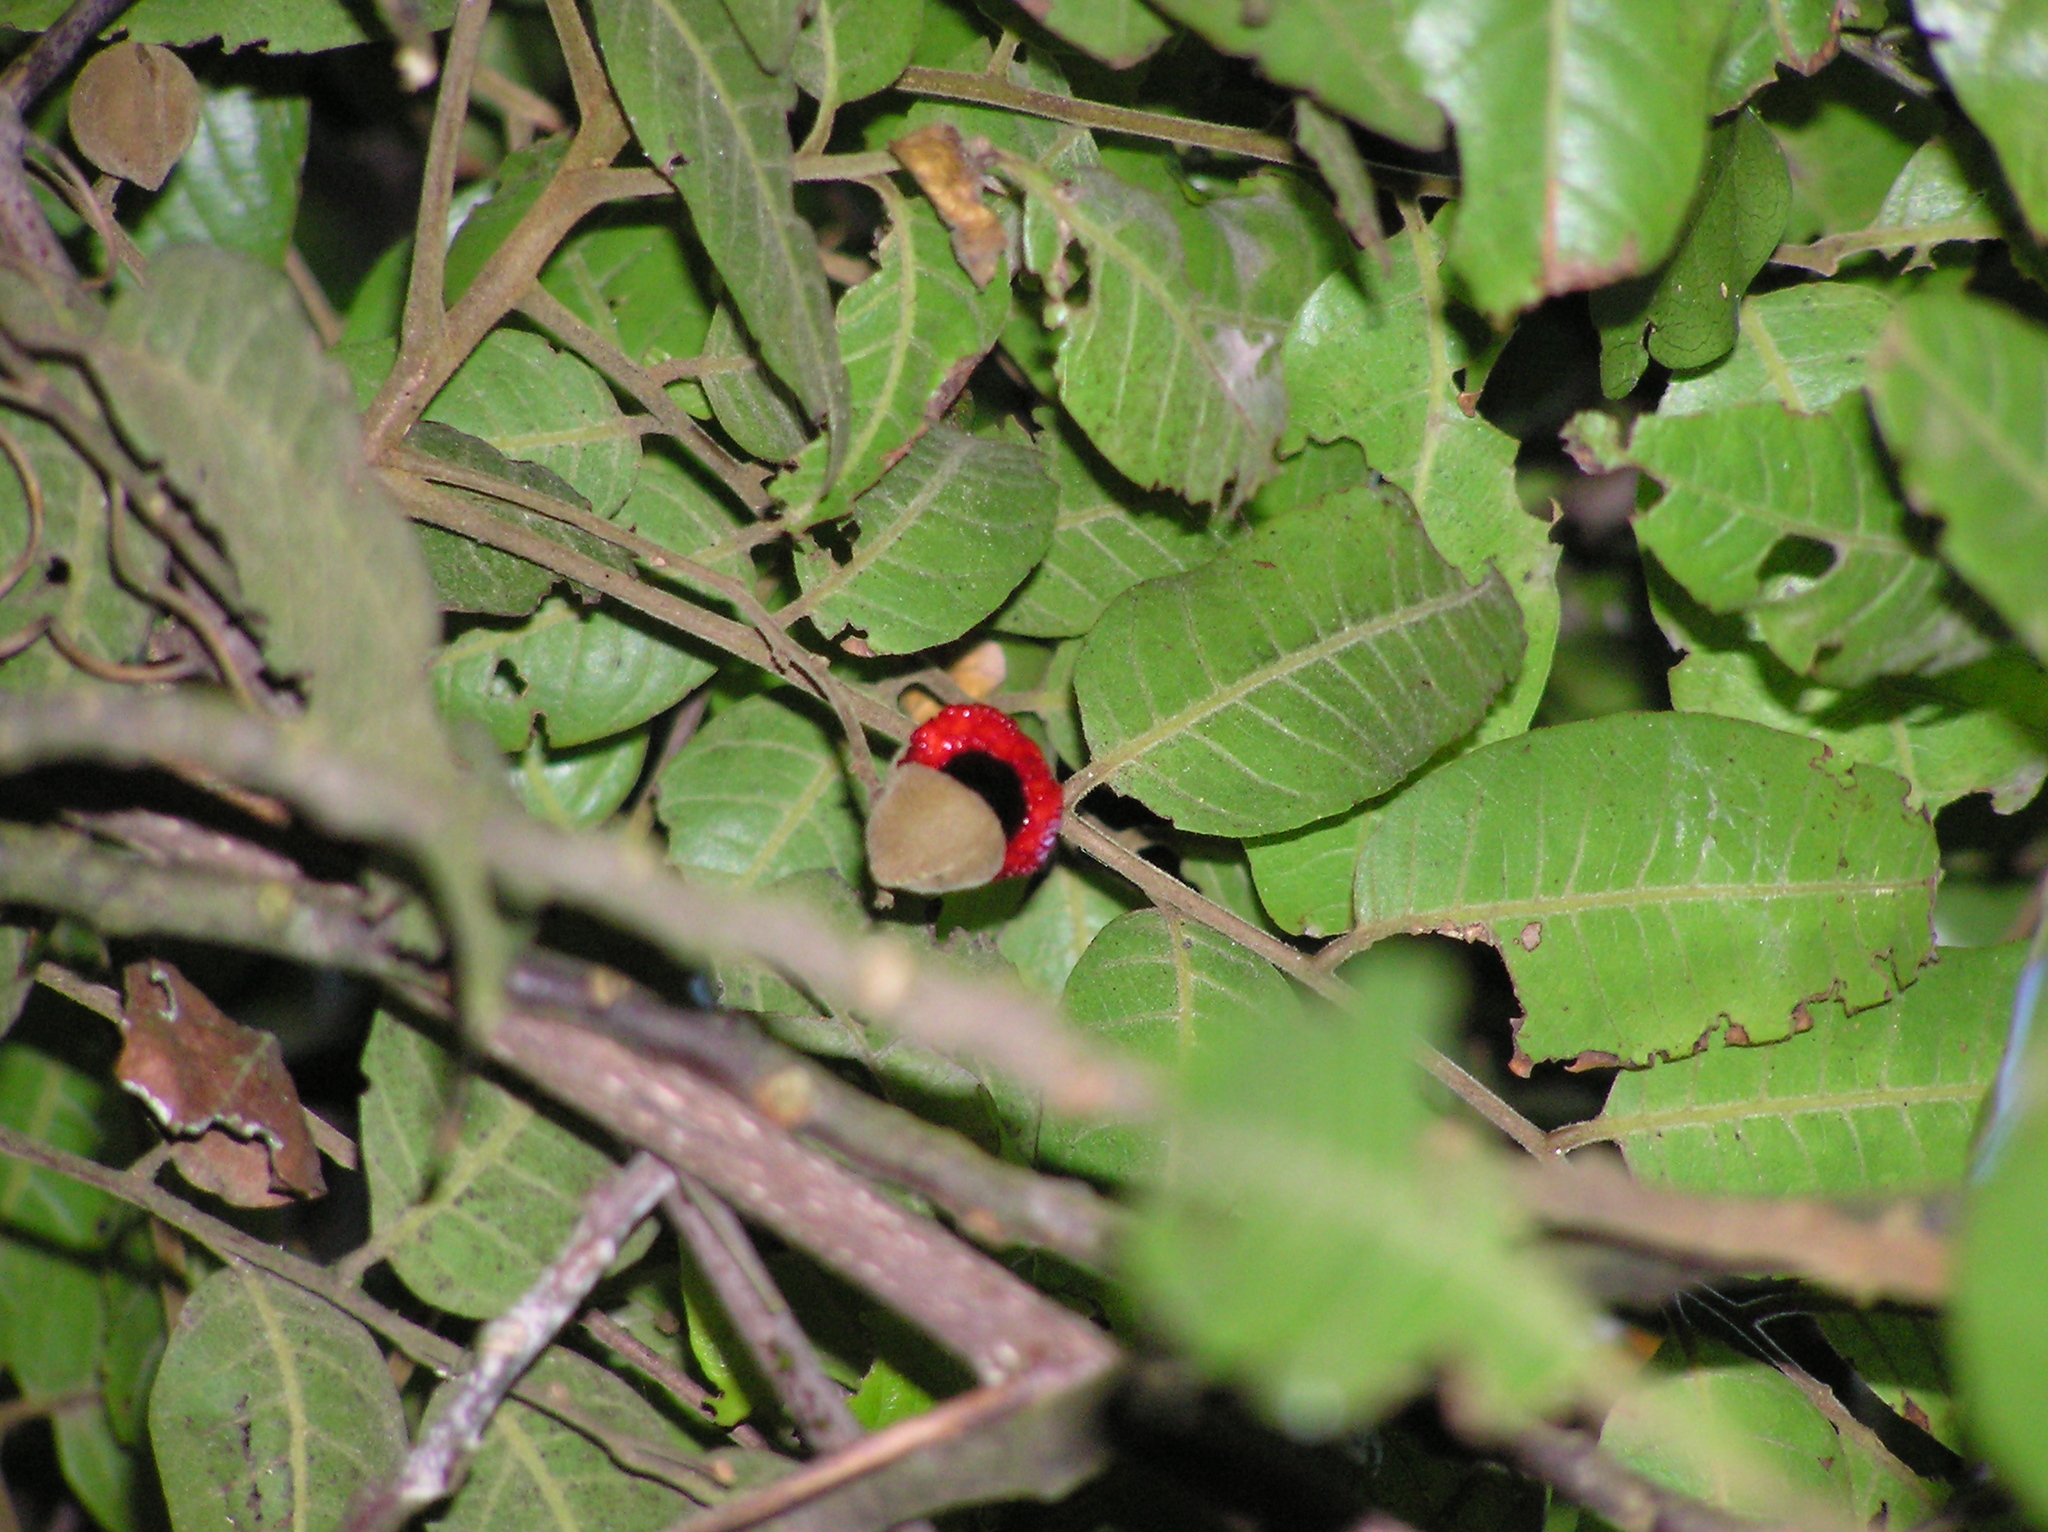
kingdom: Plantae
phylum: Tracheophyta
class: Magnoliopsida
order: Sapindales
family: Sapindaceae
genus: Alectryon
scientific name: Alectryon excelsus
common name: Three kings titoki
